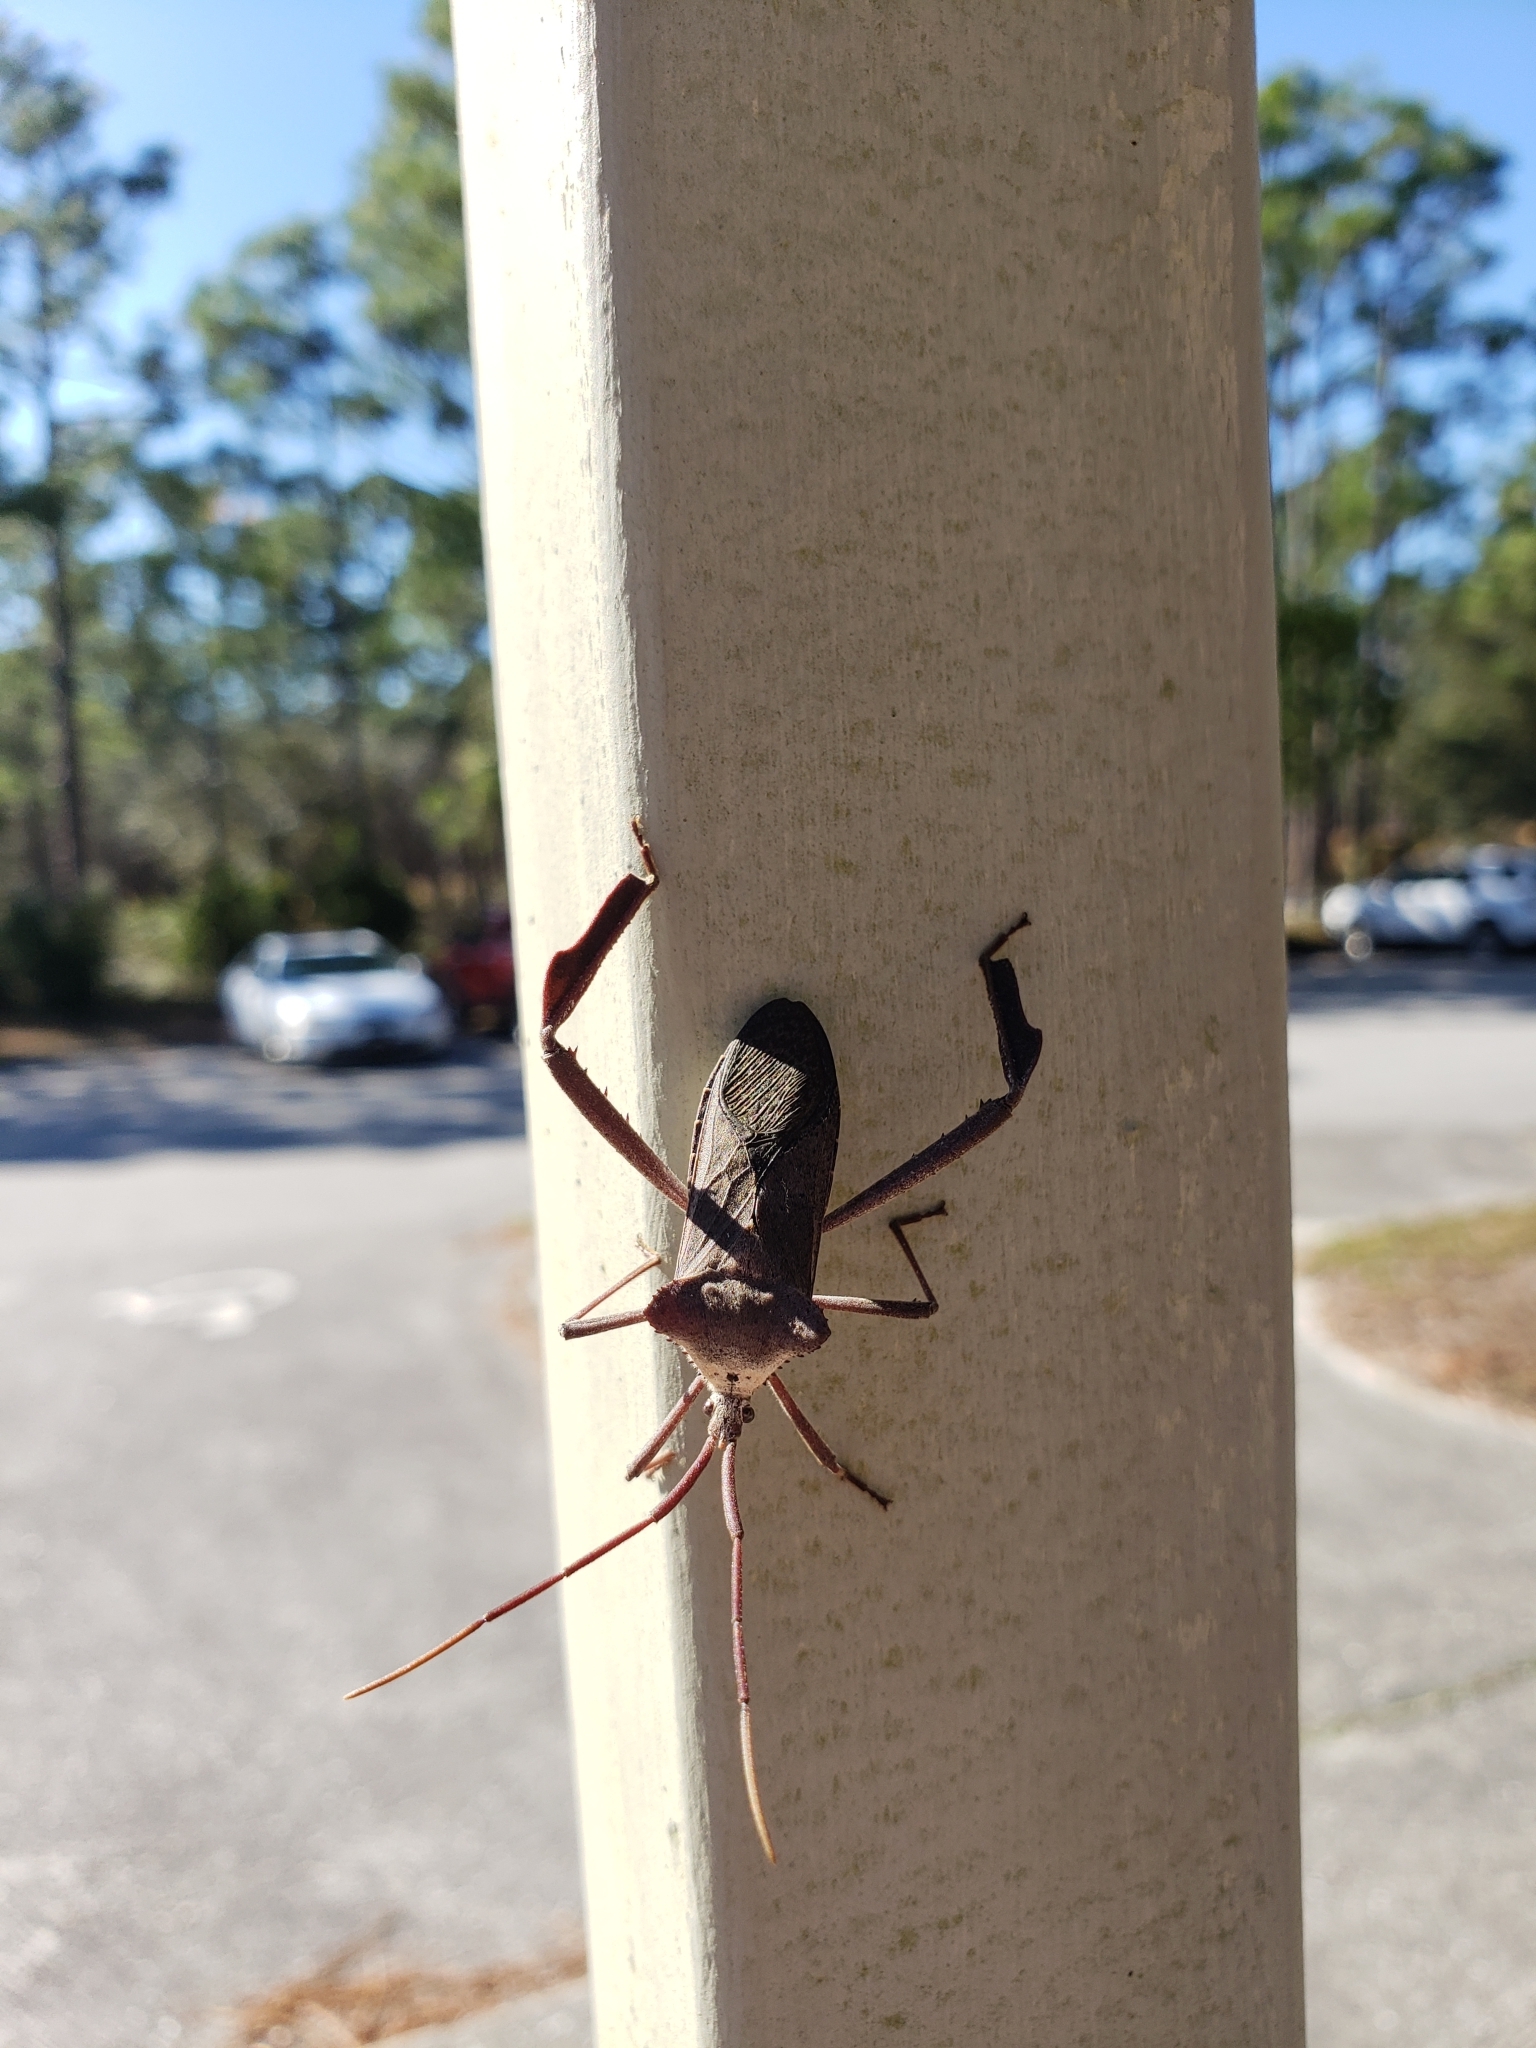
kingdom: Animalia
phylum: Arthropoda
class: Insecta
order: Hemiptera
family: Coreidae
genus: Acanthocephala
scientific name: Acanthocephala declivis
